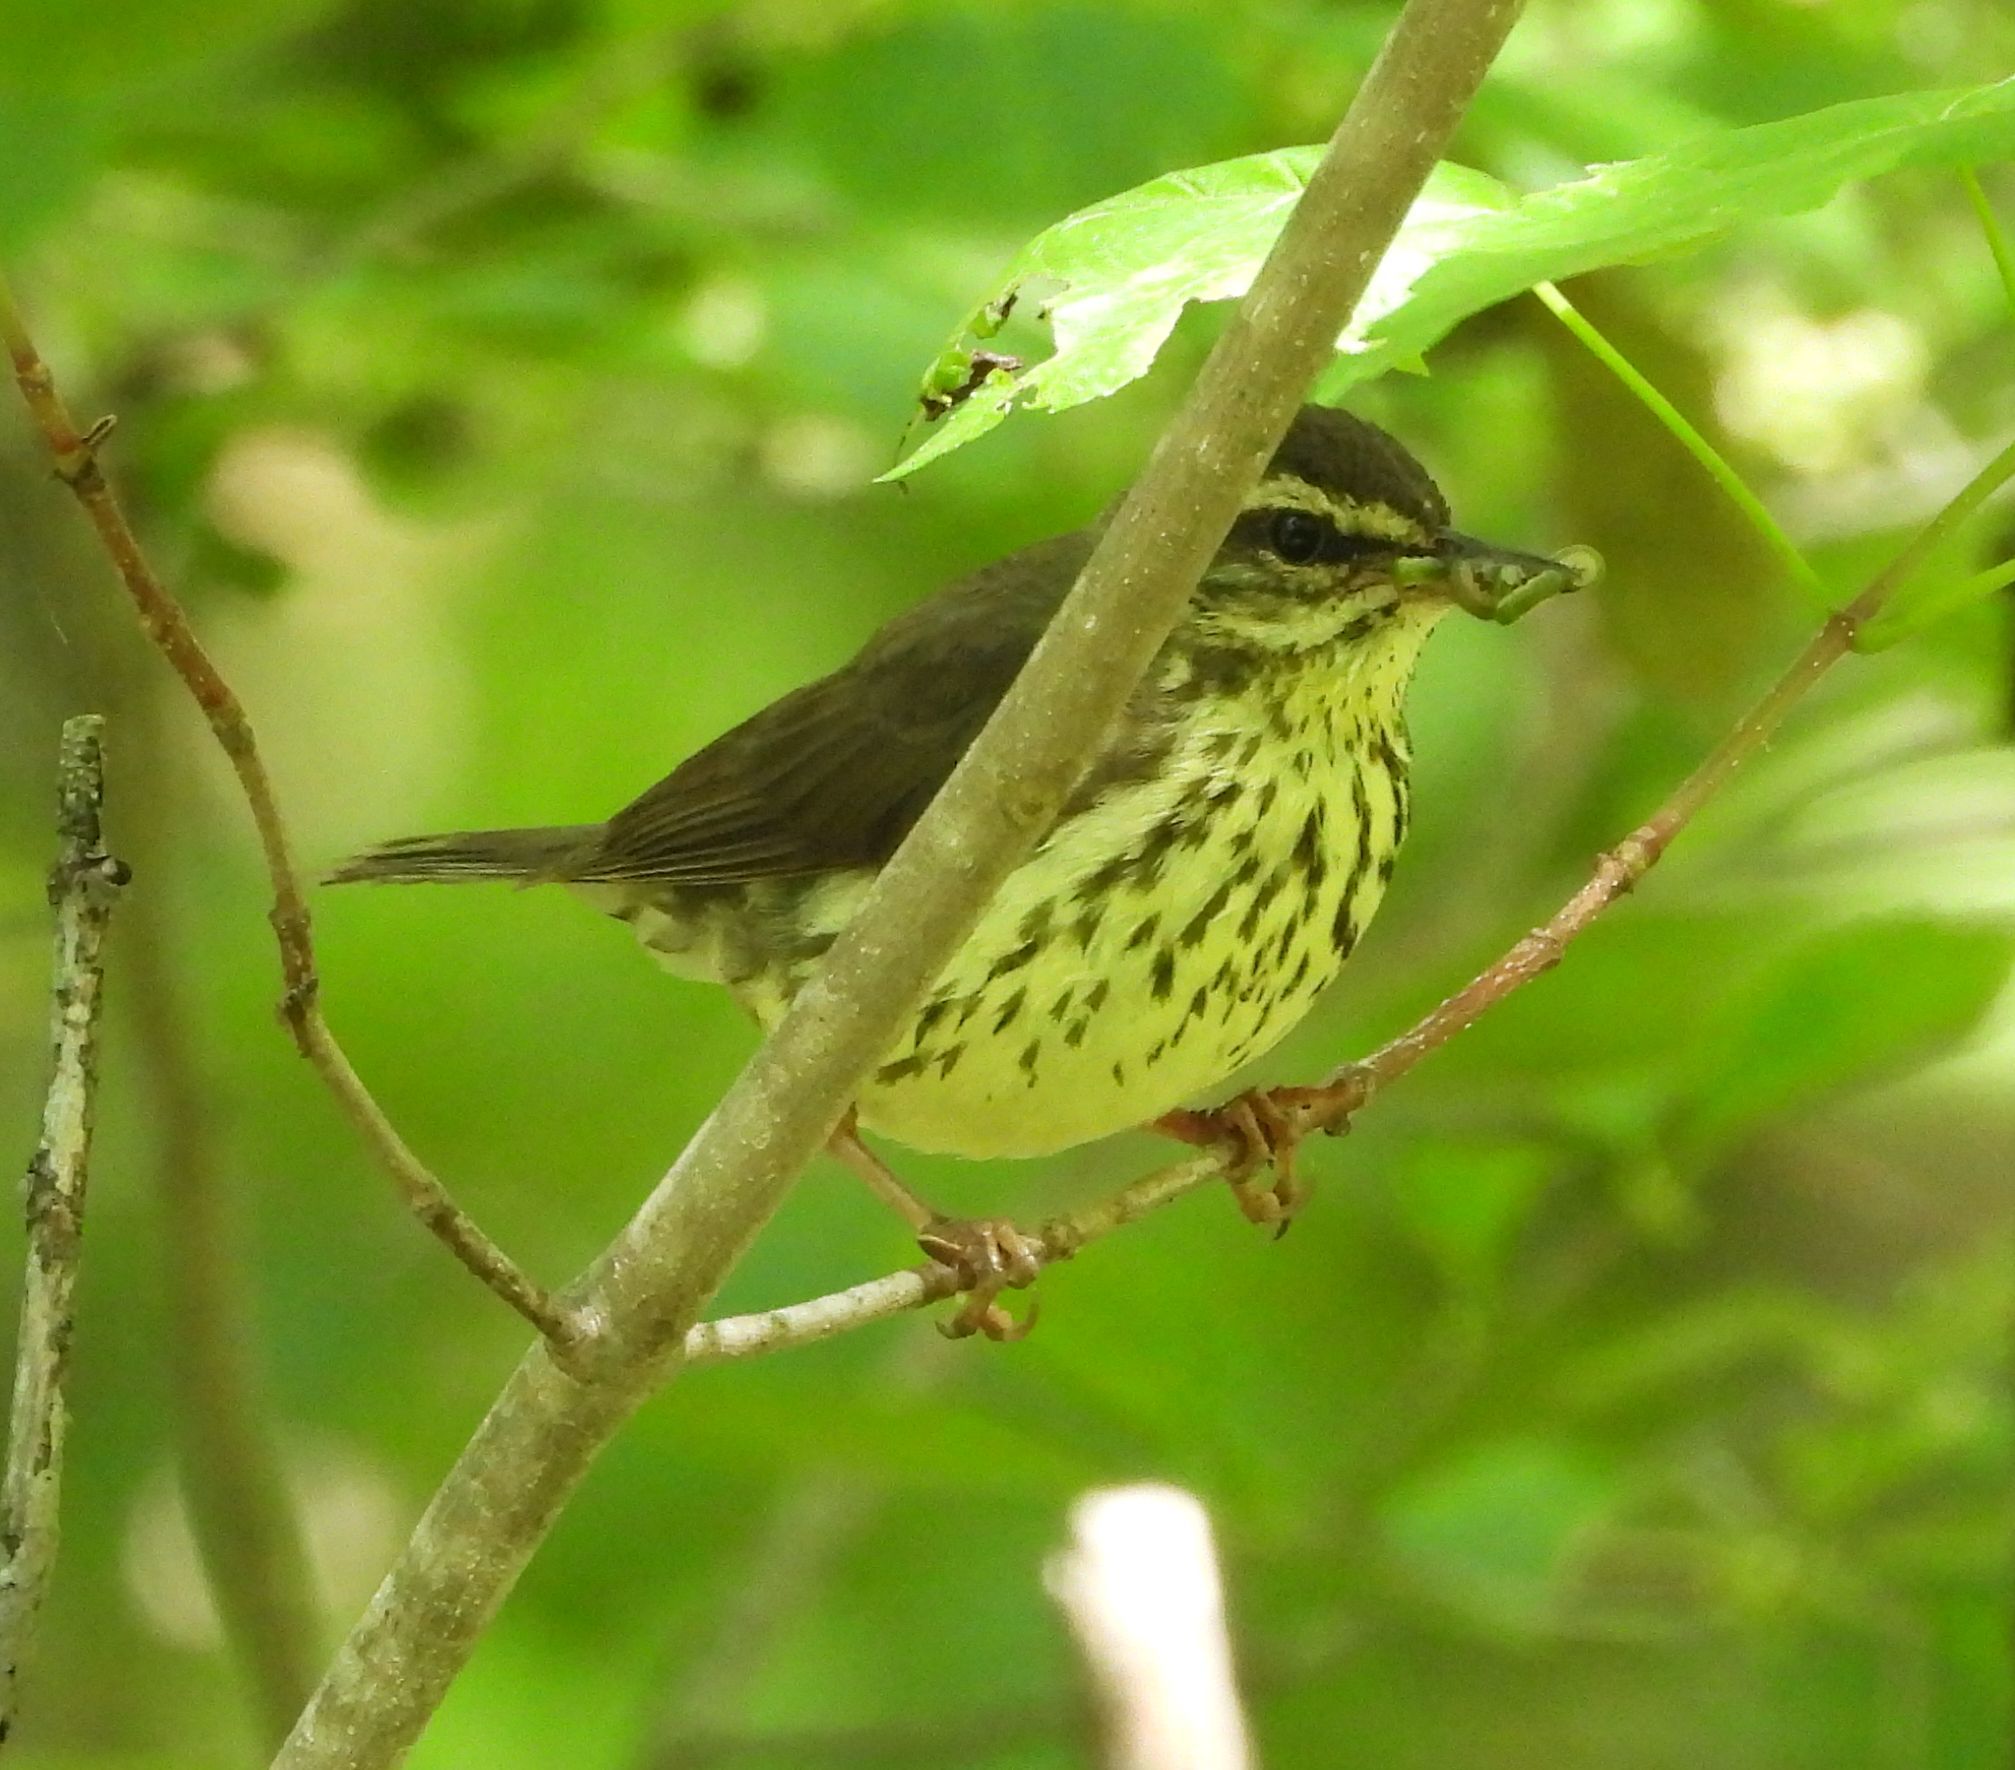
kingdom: Animalia
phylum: Chordata
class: Aves
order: Passeriformes
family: Parulidae
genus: Parkesia
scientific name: Parkesia noveboracensis
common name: Northern waterthrush
